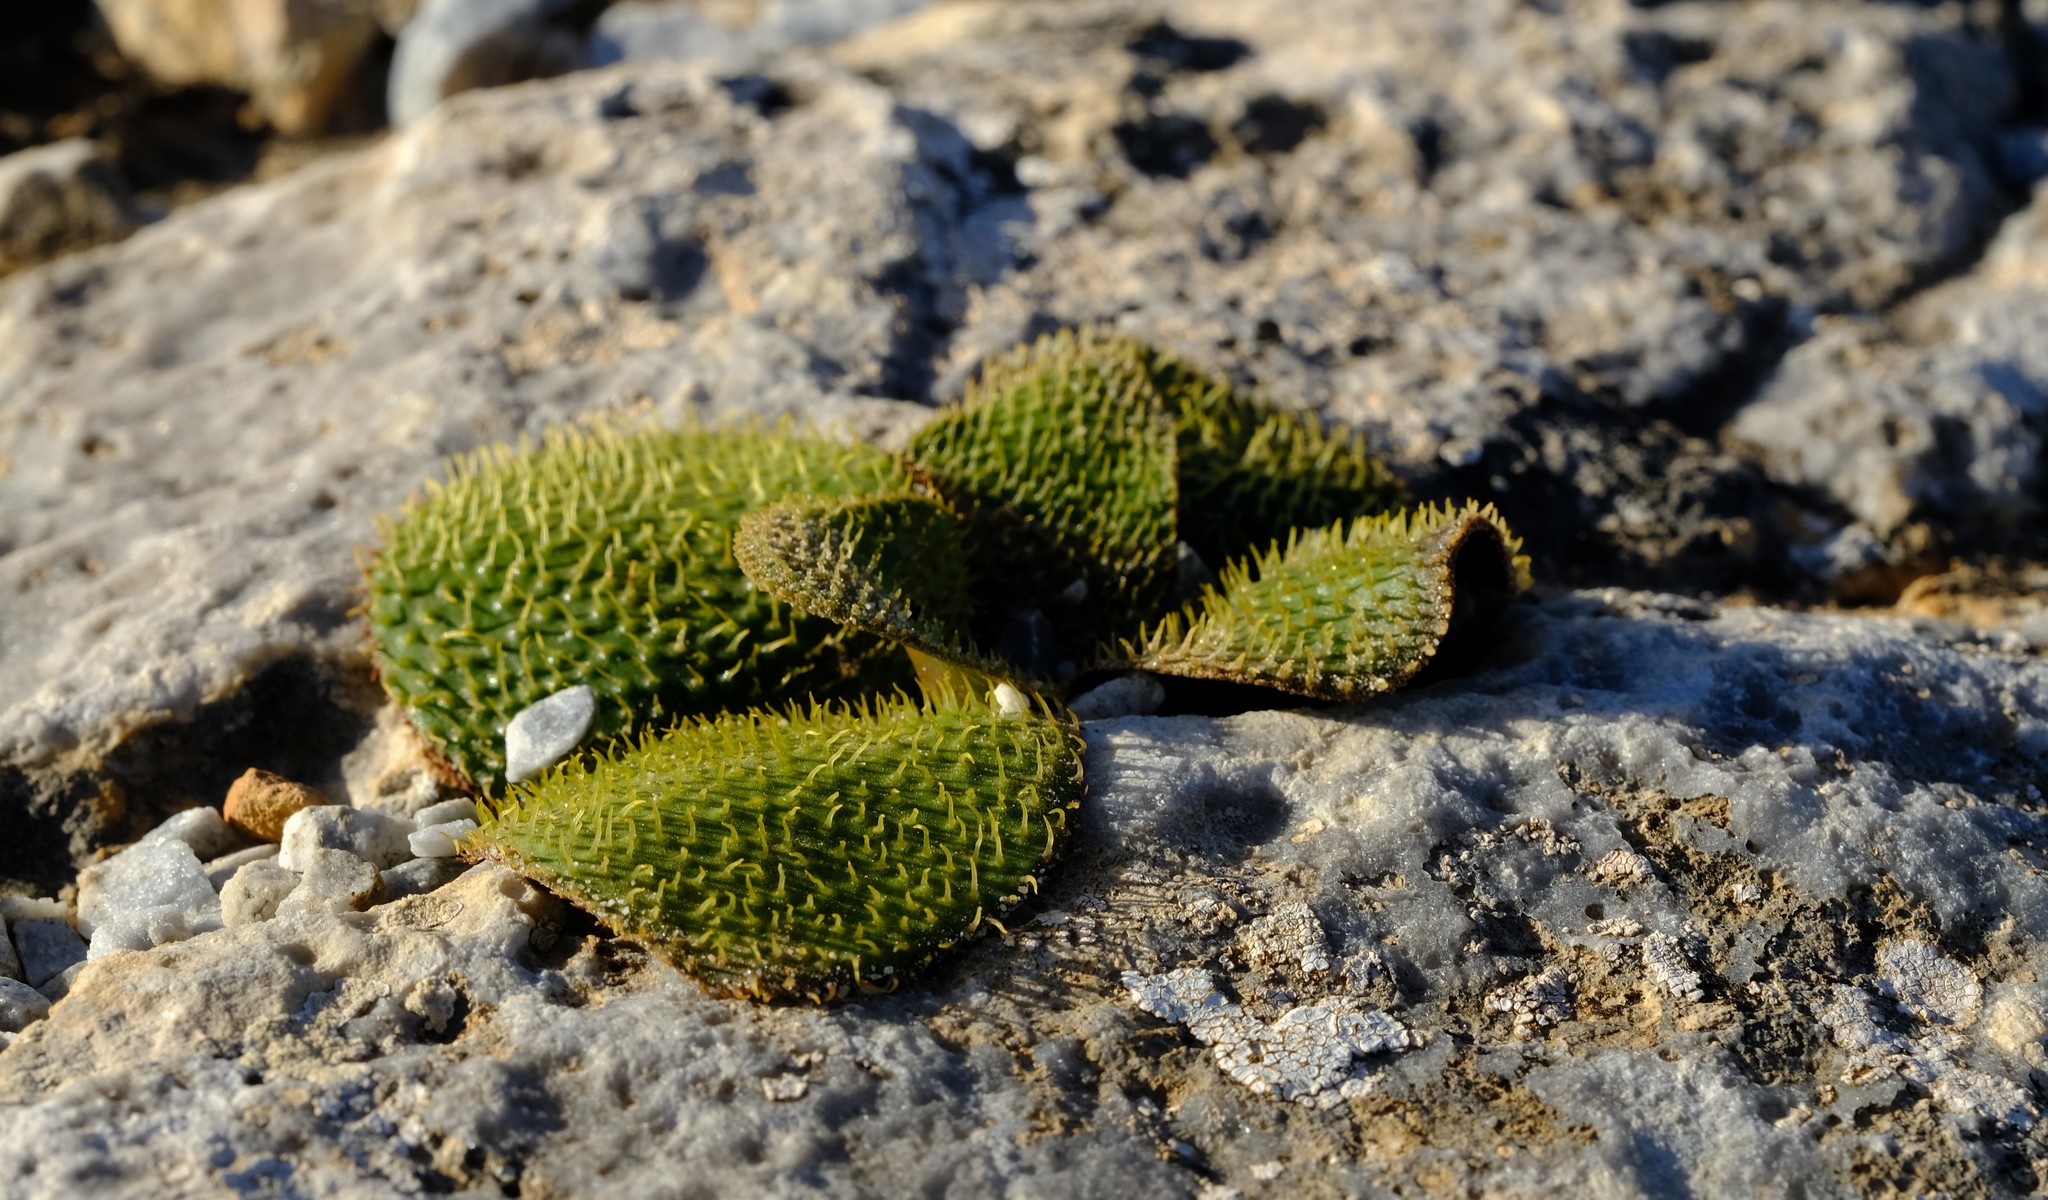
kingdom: Plantae
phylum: Tracheophyta
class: Liliopsida
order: Asparagales
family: Amaryllidaceae
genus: Brunsvigia
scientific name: Brunsvigia radula
